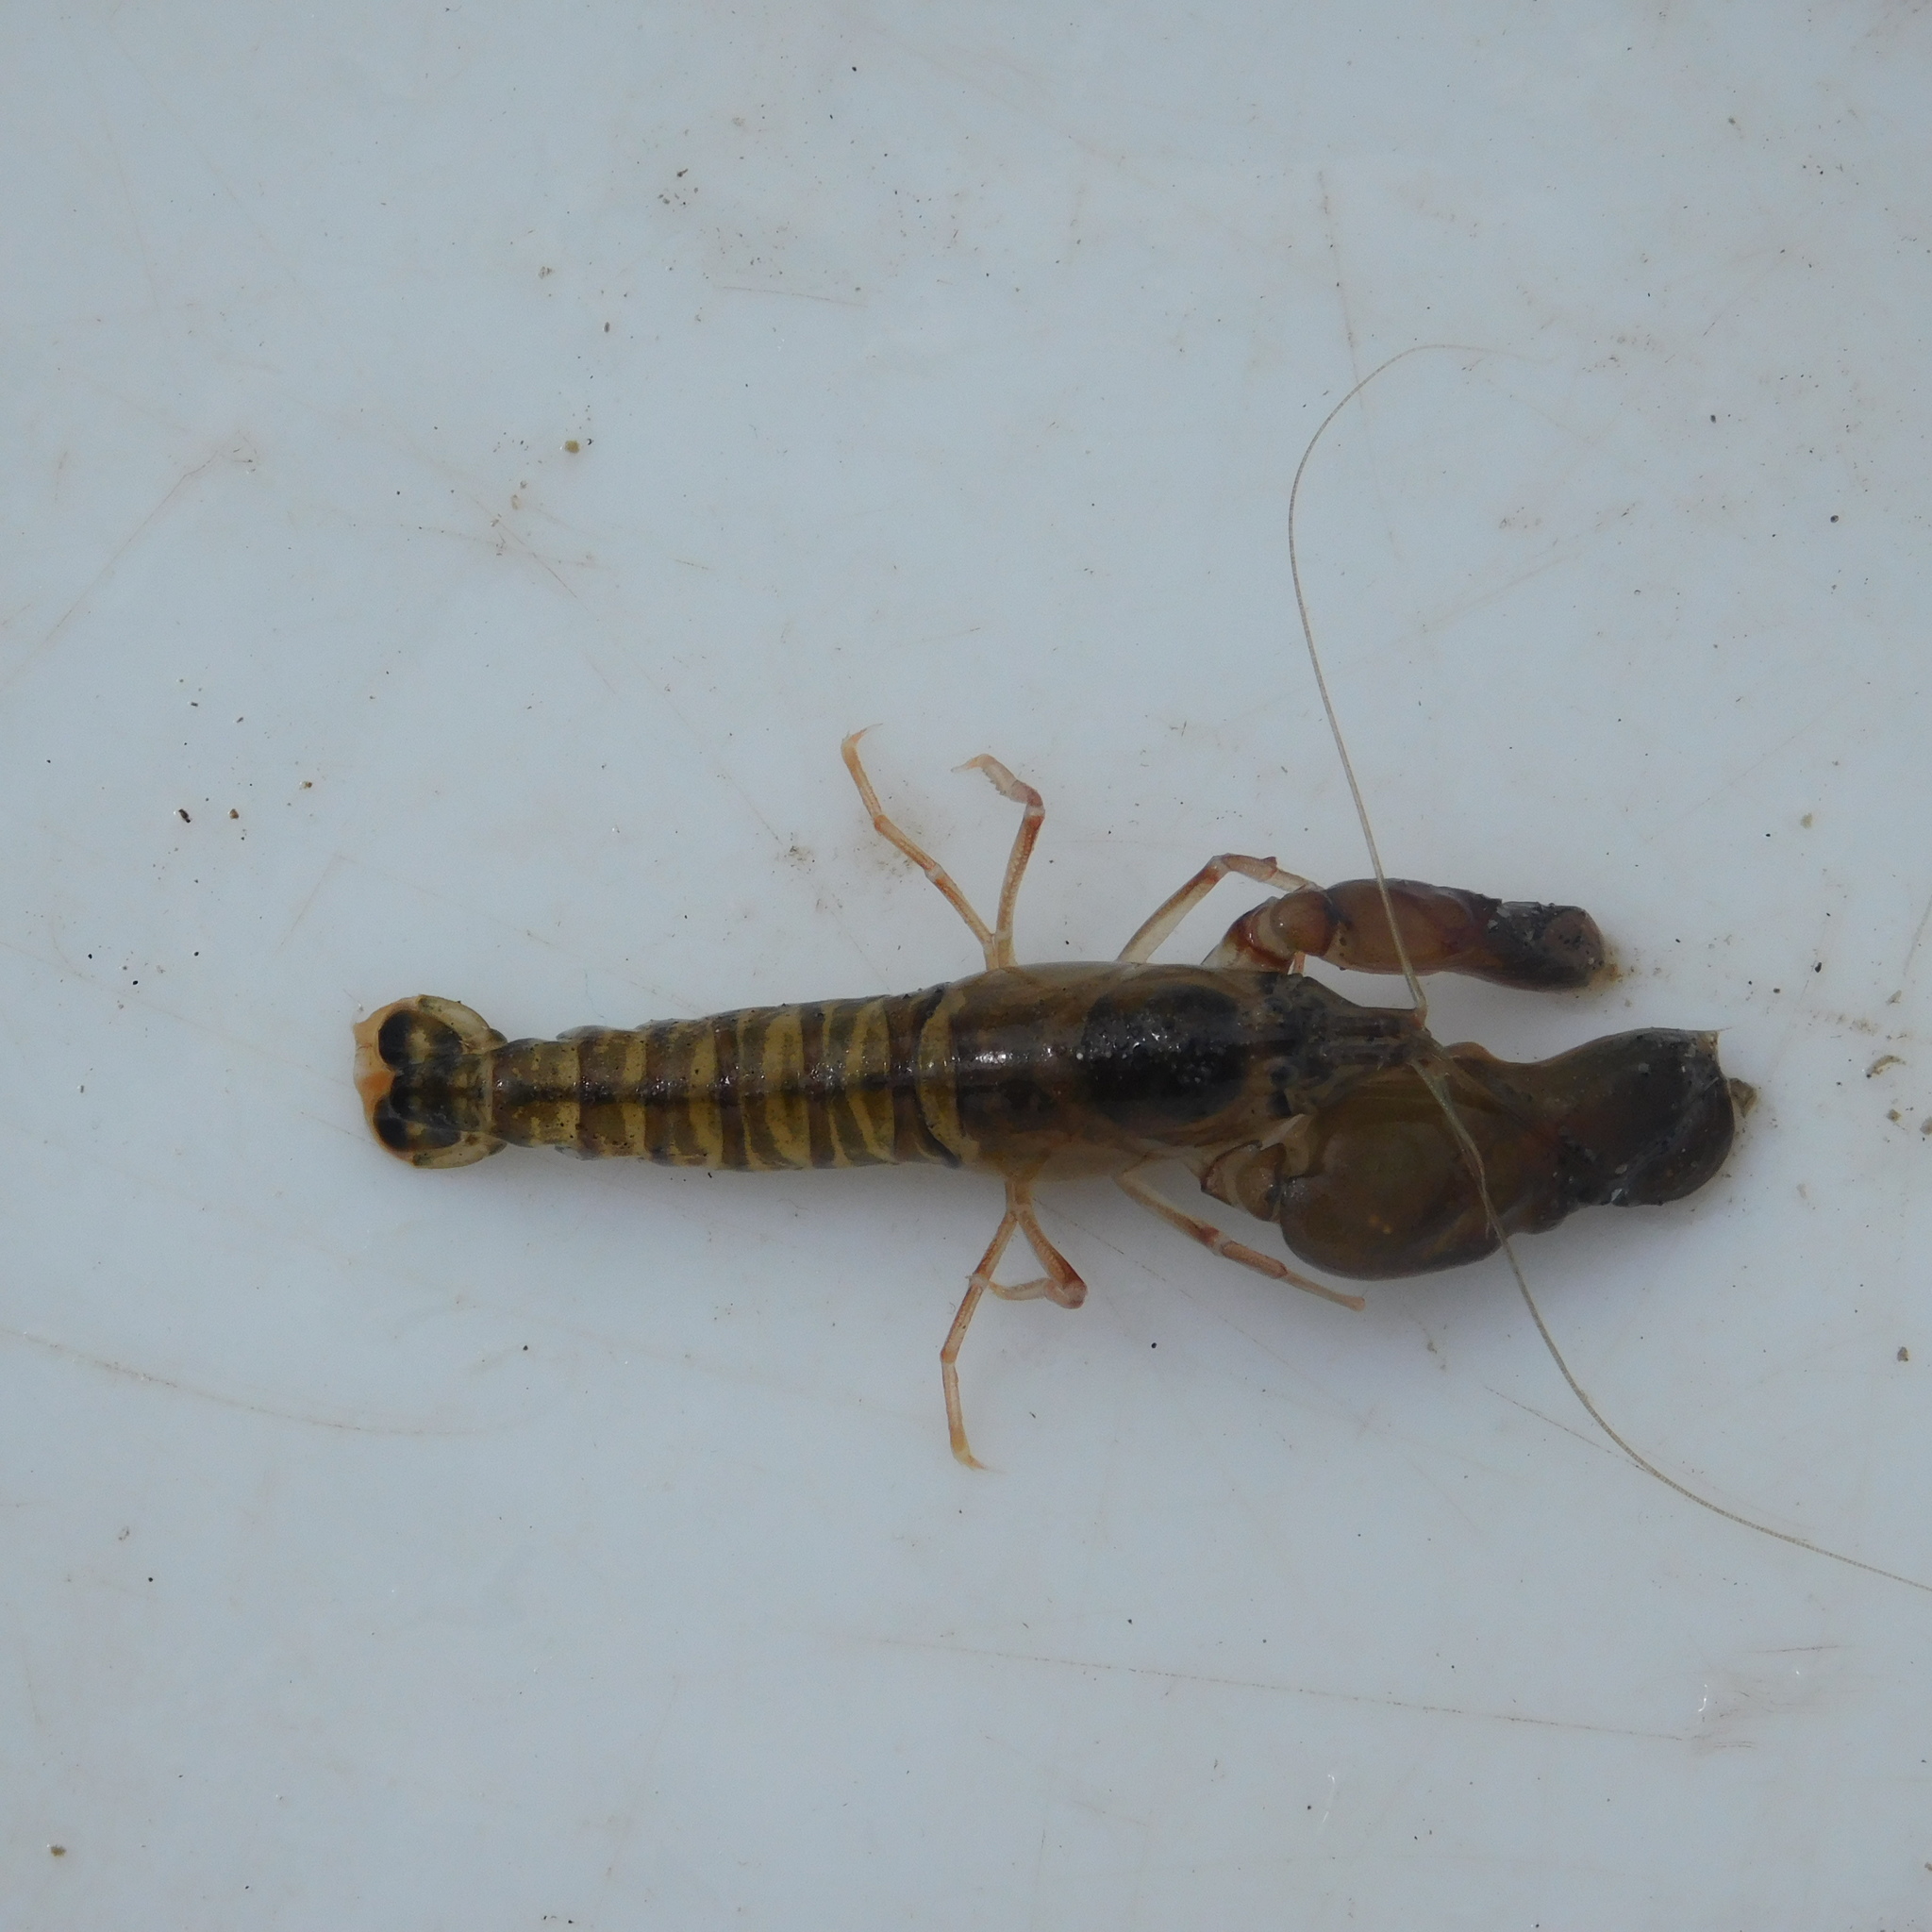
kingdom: Animalia
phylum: Arthropoda
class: Malacostraca
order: Decapoda
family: Alpheidae
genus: Alpheus
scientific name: Alpheus richardsoni
